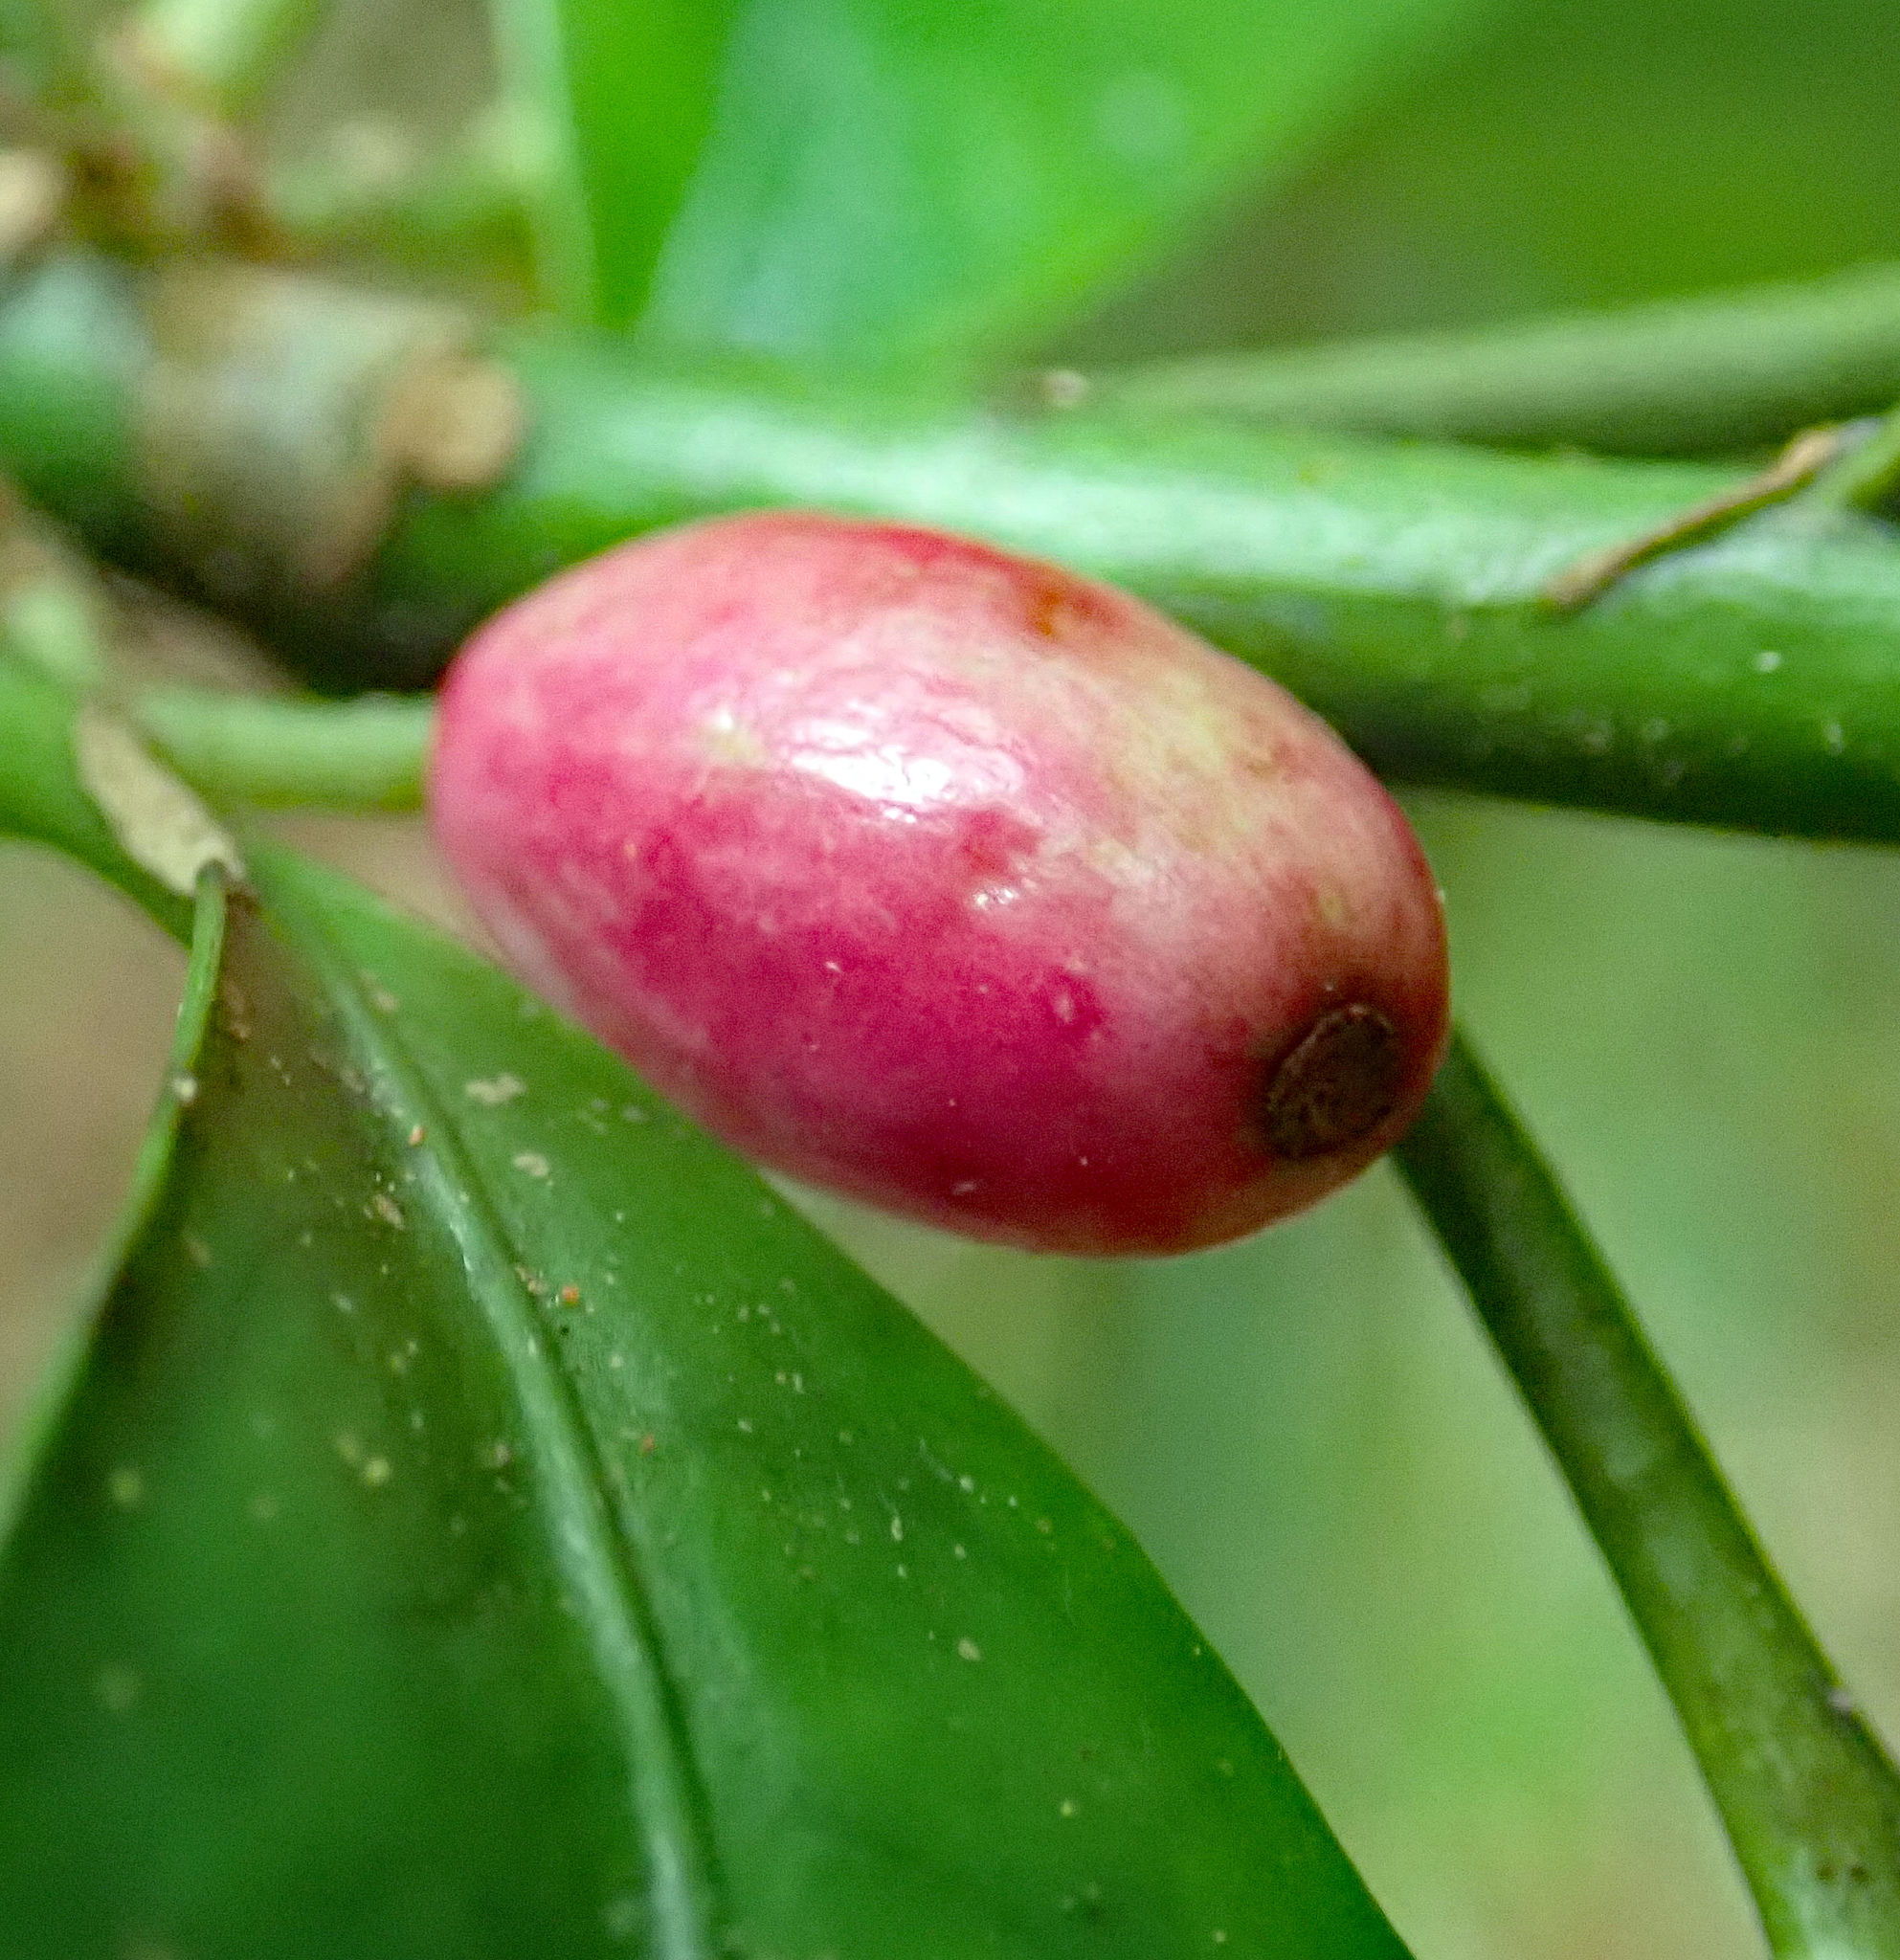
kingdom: Plantae
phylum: Tracheophyta
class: Magnoliopsida
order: Asterales
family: Alseuosmiaceae
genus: Alseuosmia
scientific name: Alseuosmia macrophylla
